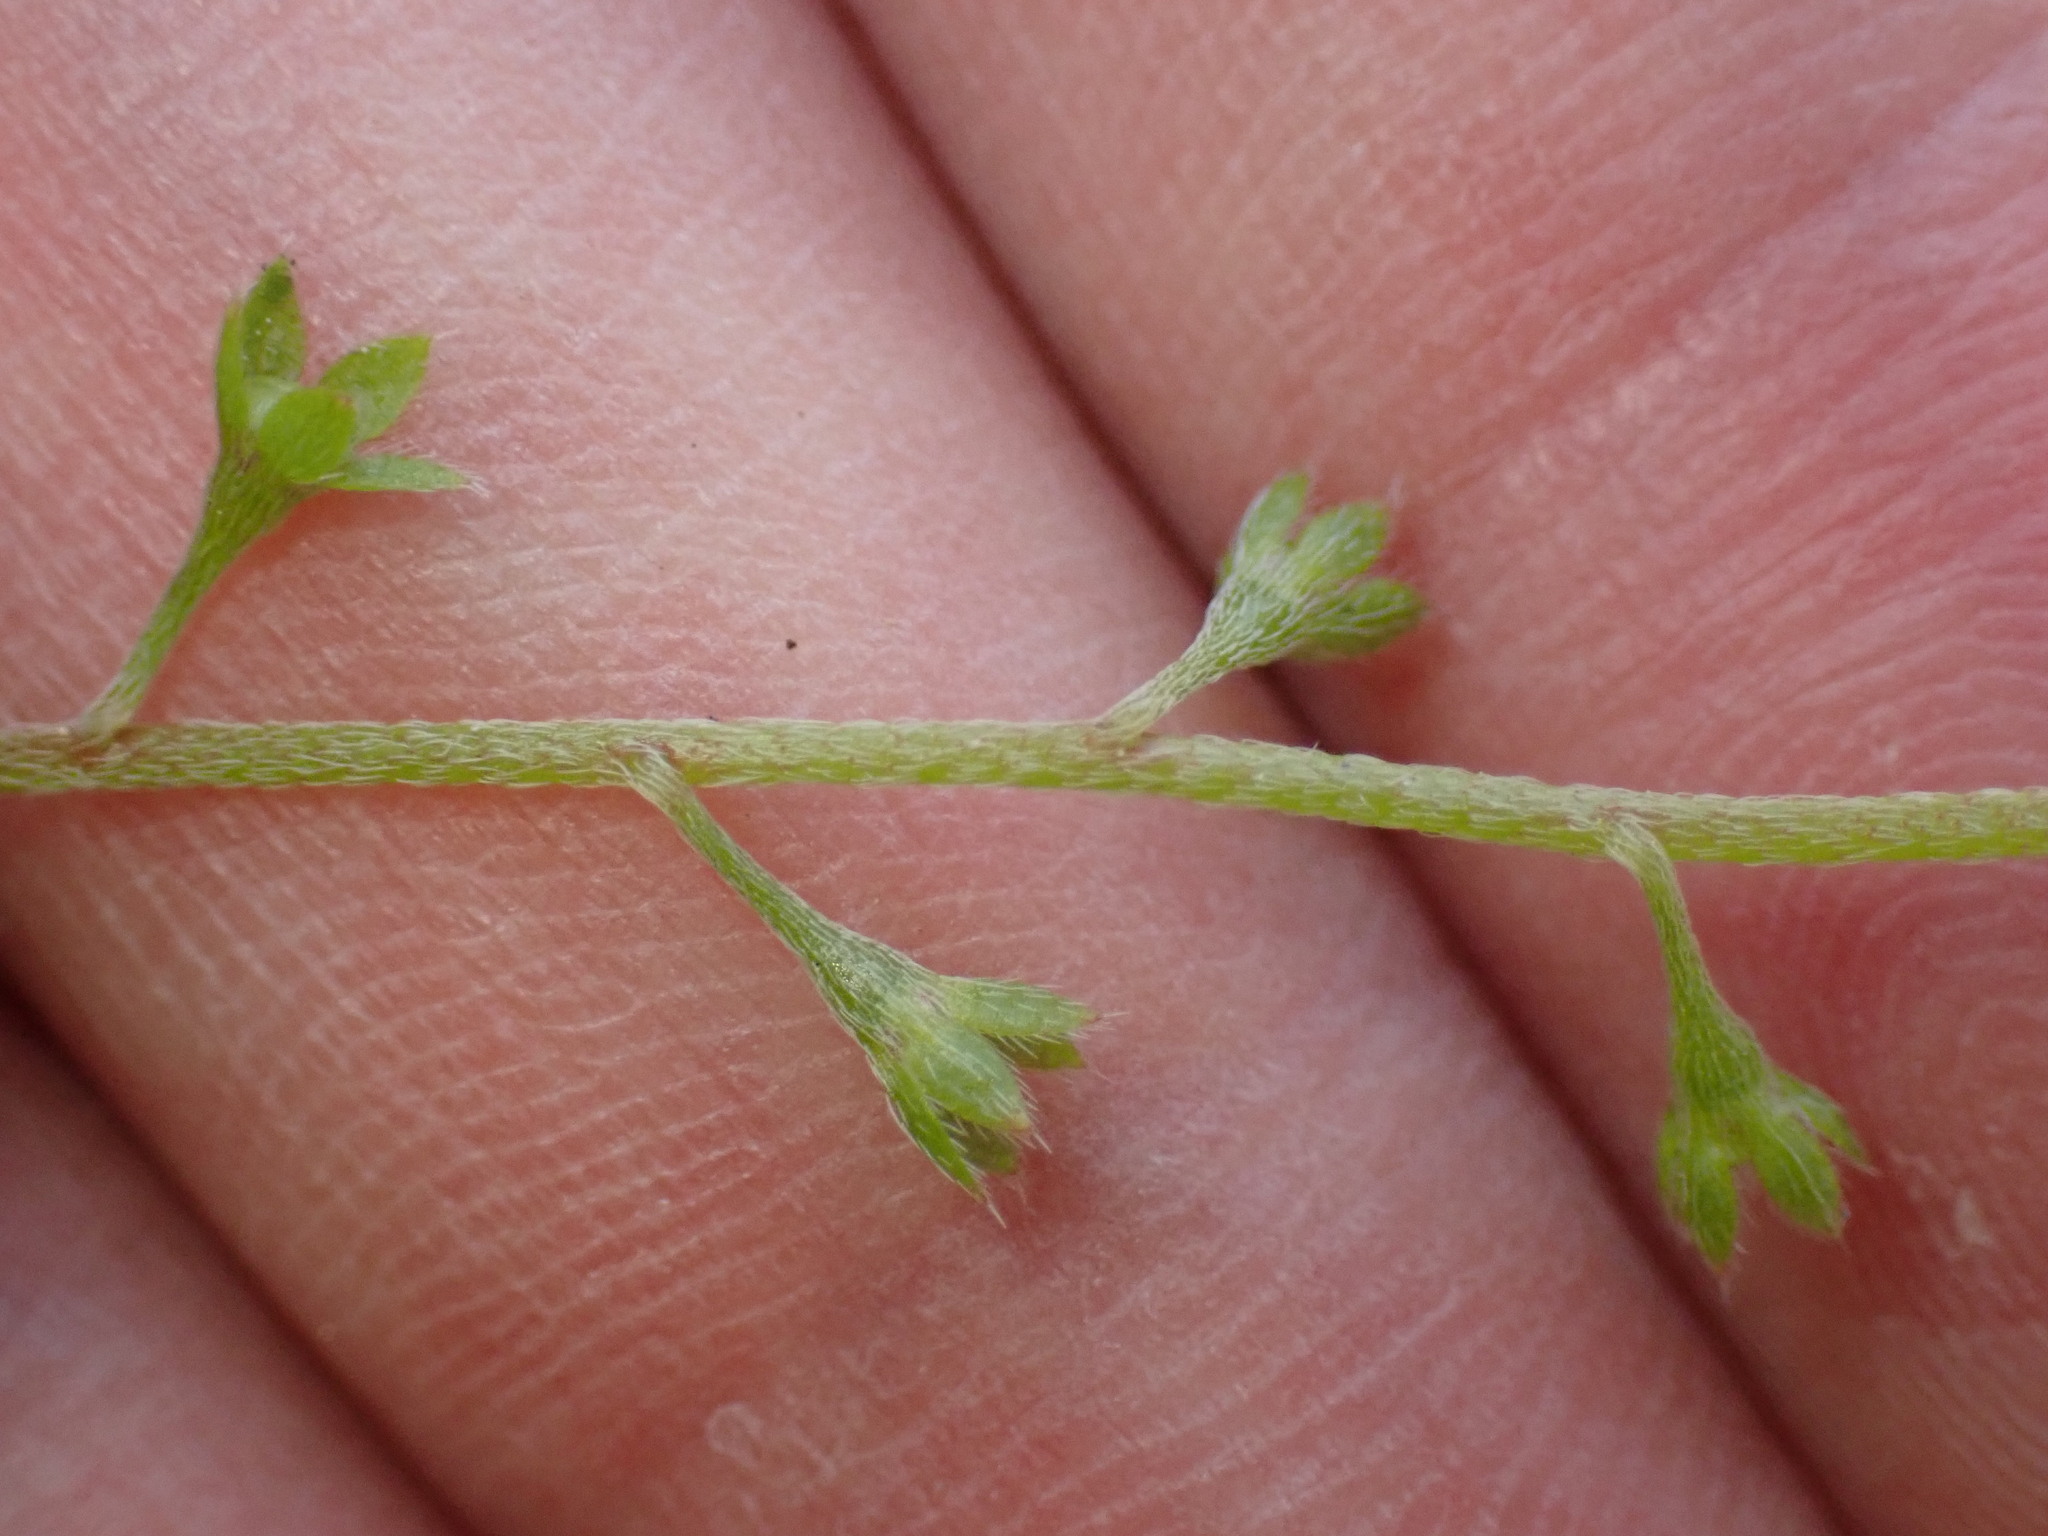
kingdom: Plantae
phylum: Tracheophyta
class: Magnoliopsida
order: Boraginales
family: Boraginaceae
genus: Trigonotis
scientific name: Trigonotis peduncularis
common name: Cucumber herb
